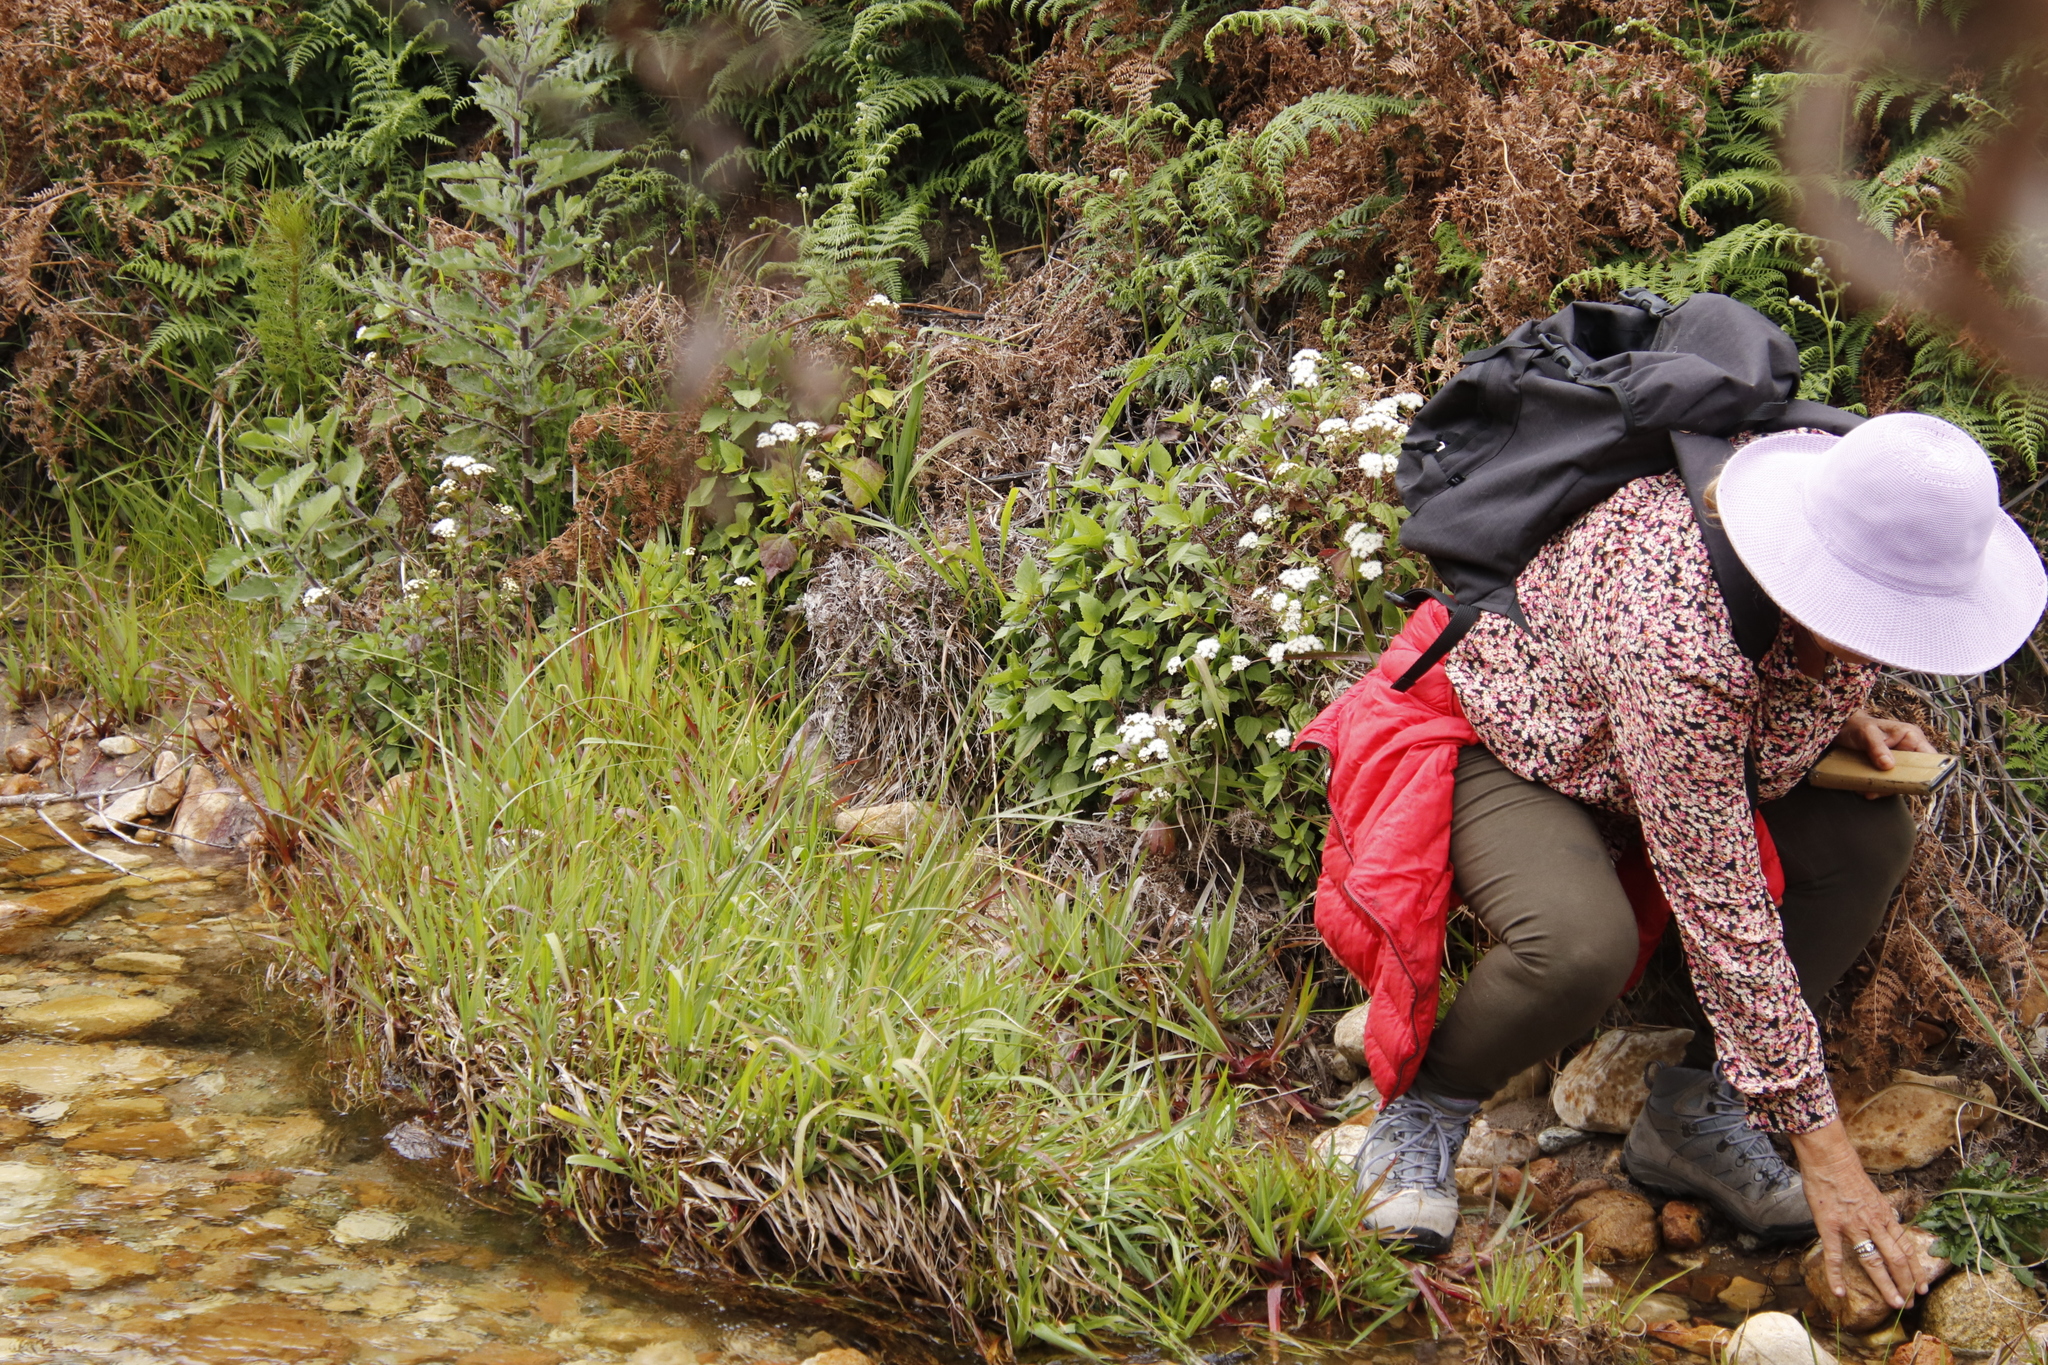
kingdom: Plantae
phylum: Tracheophyta
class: Magnoliopsida
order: Asterales
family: Asteraceae
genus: Ageratina
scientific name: Ageratina adenophora
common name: Sticky snakeroot
